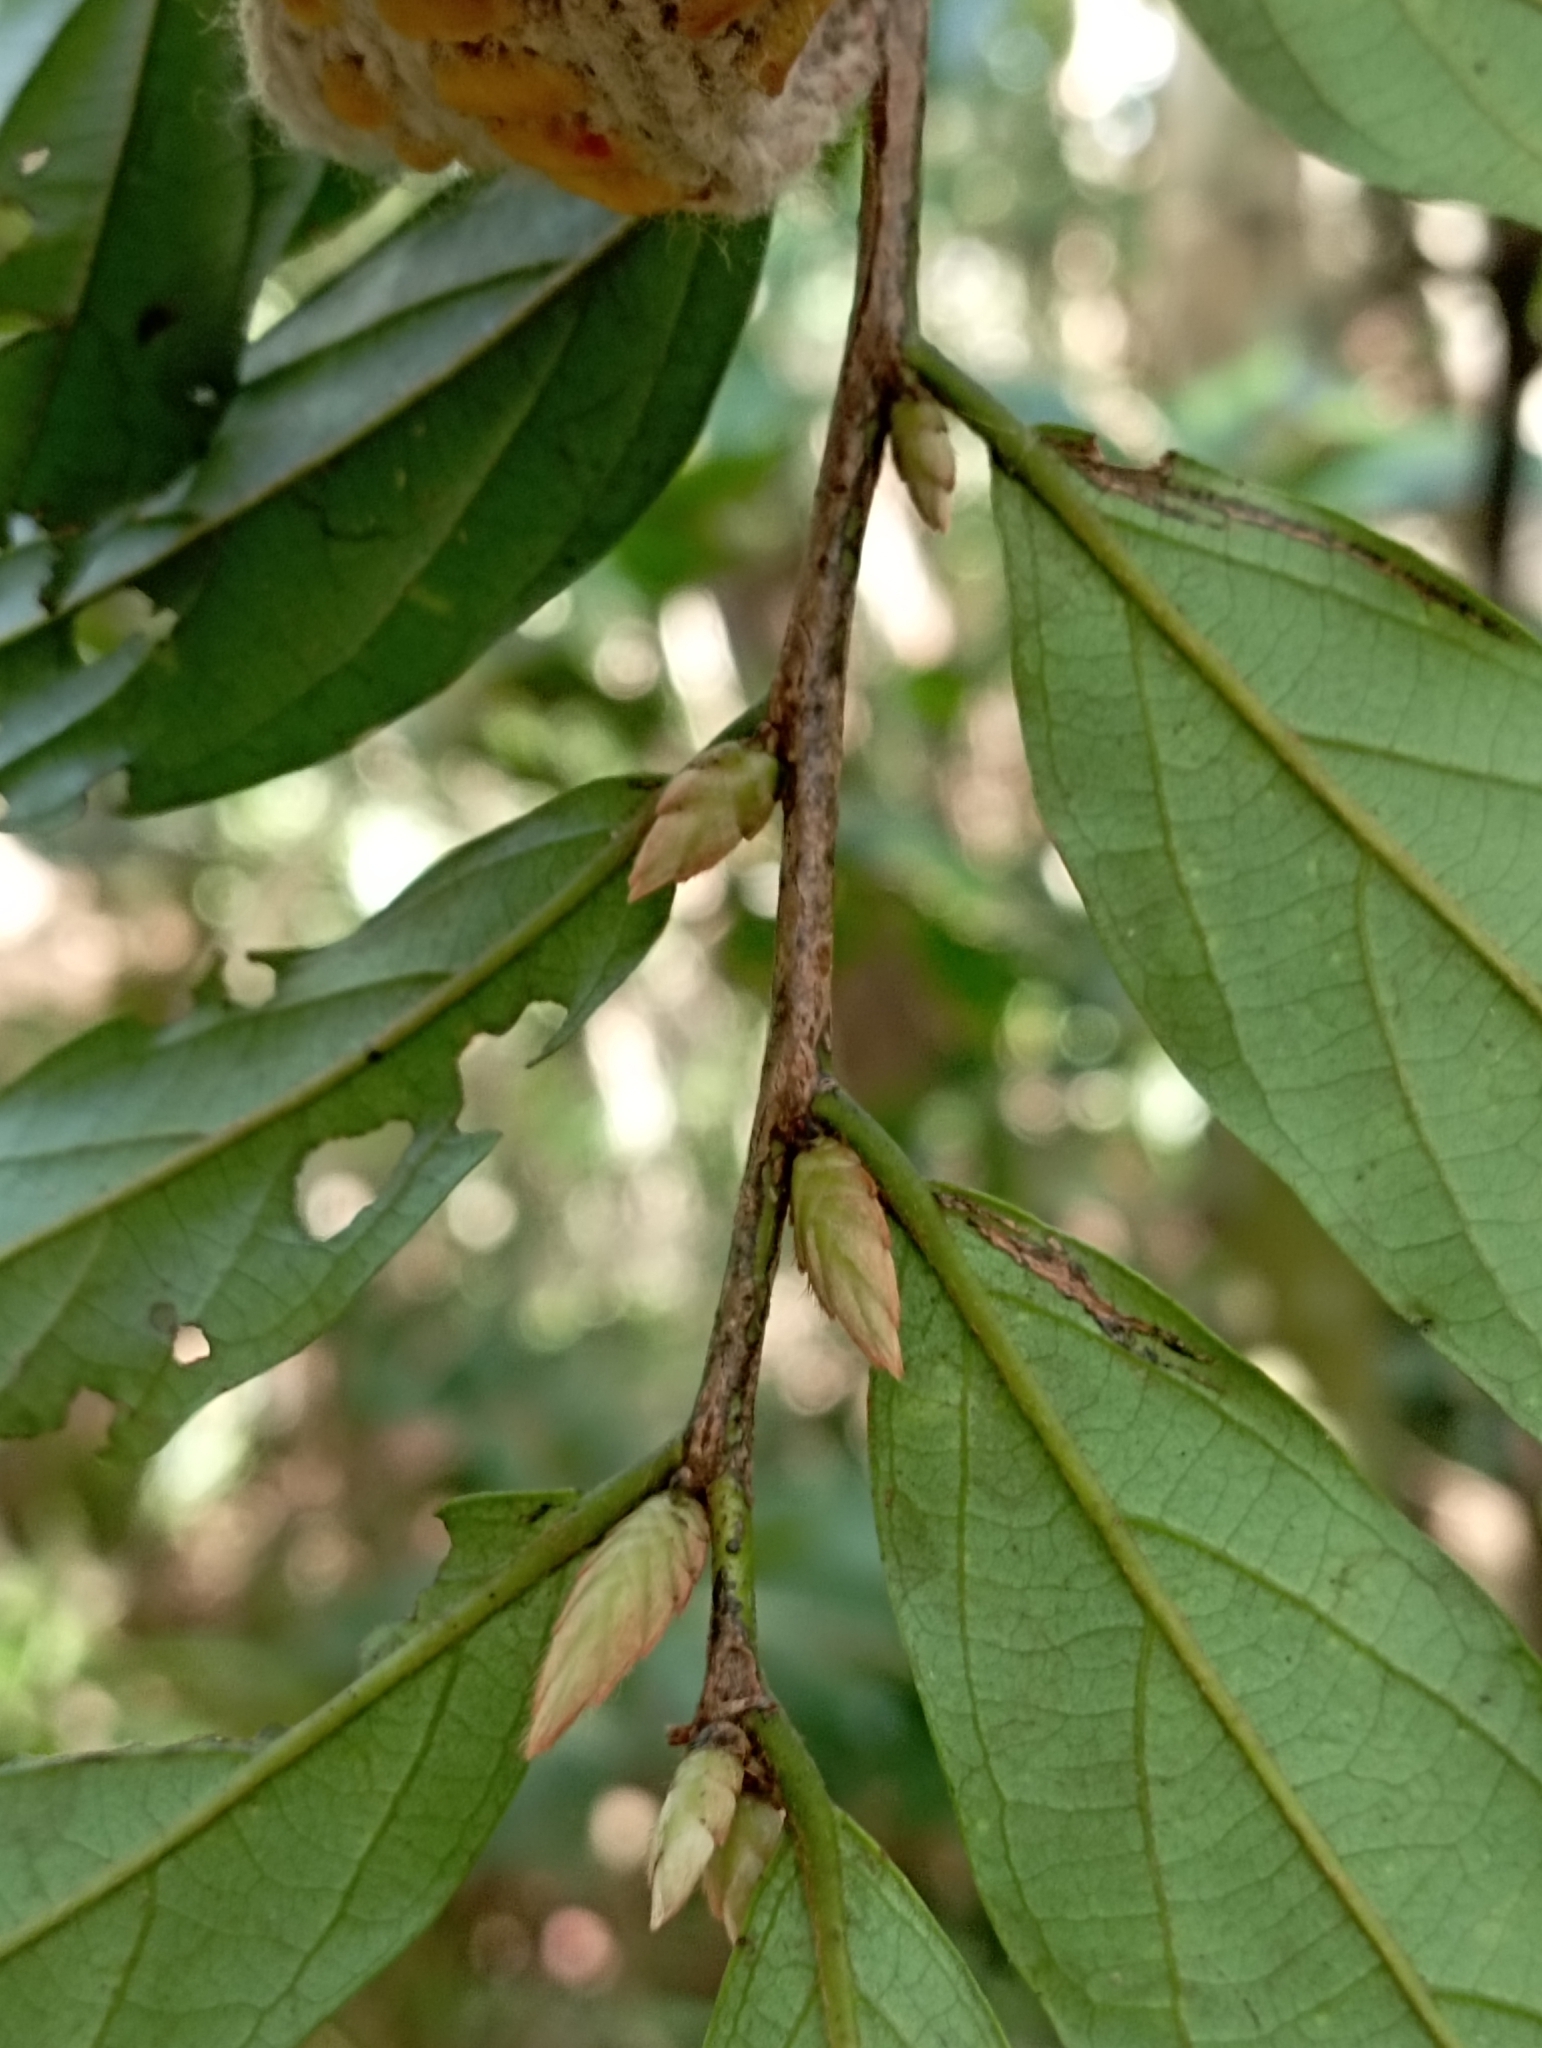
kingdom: Plantae
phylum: Tracheophyta
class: Magnoliopsida
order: Ericales
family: Ebenaceae
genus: Diospyros
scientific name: Diospyros eriantha
